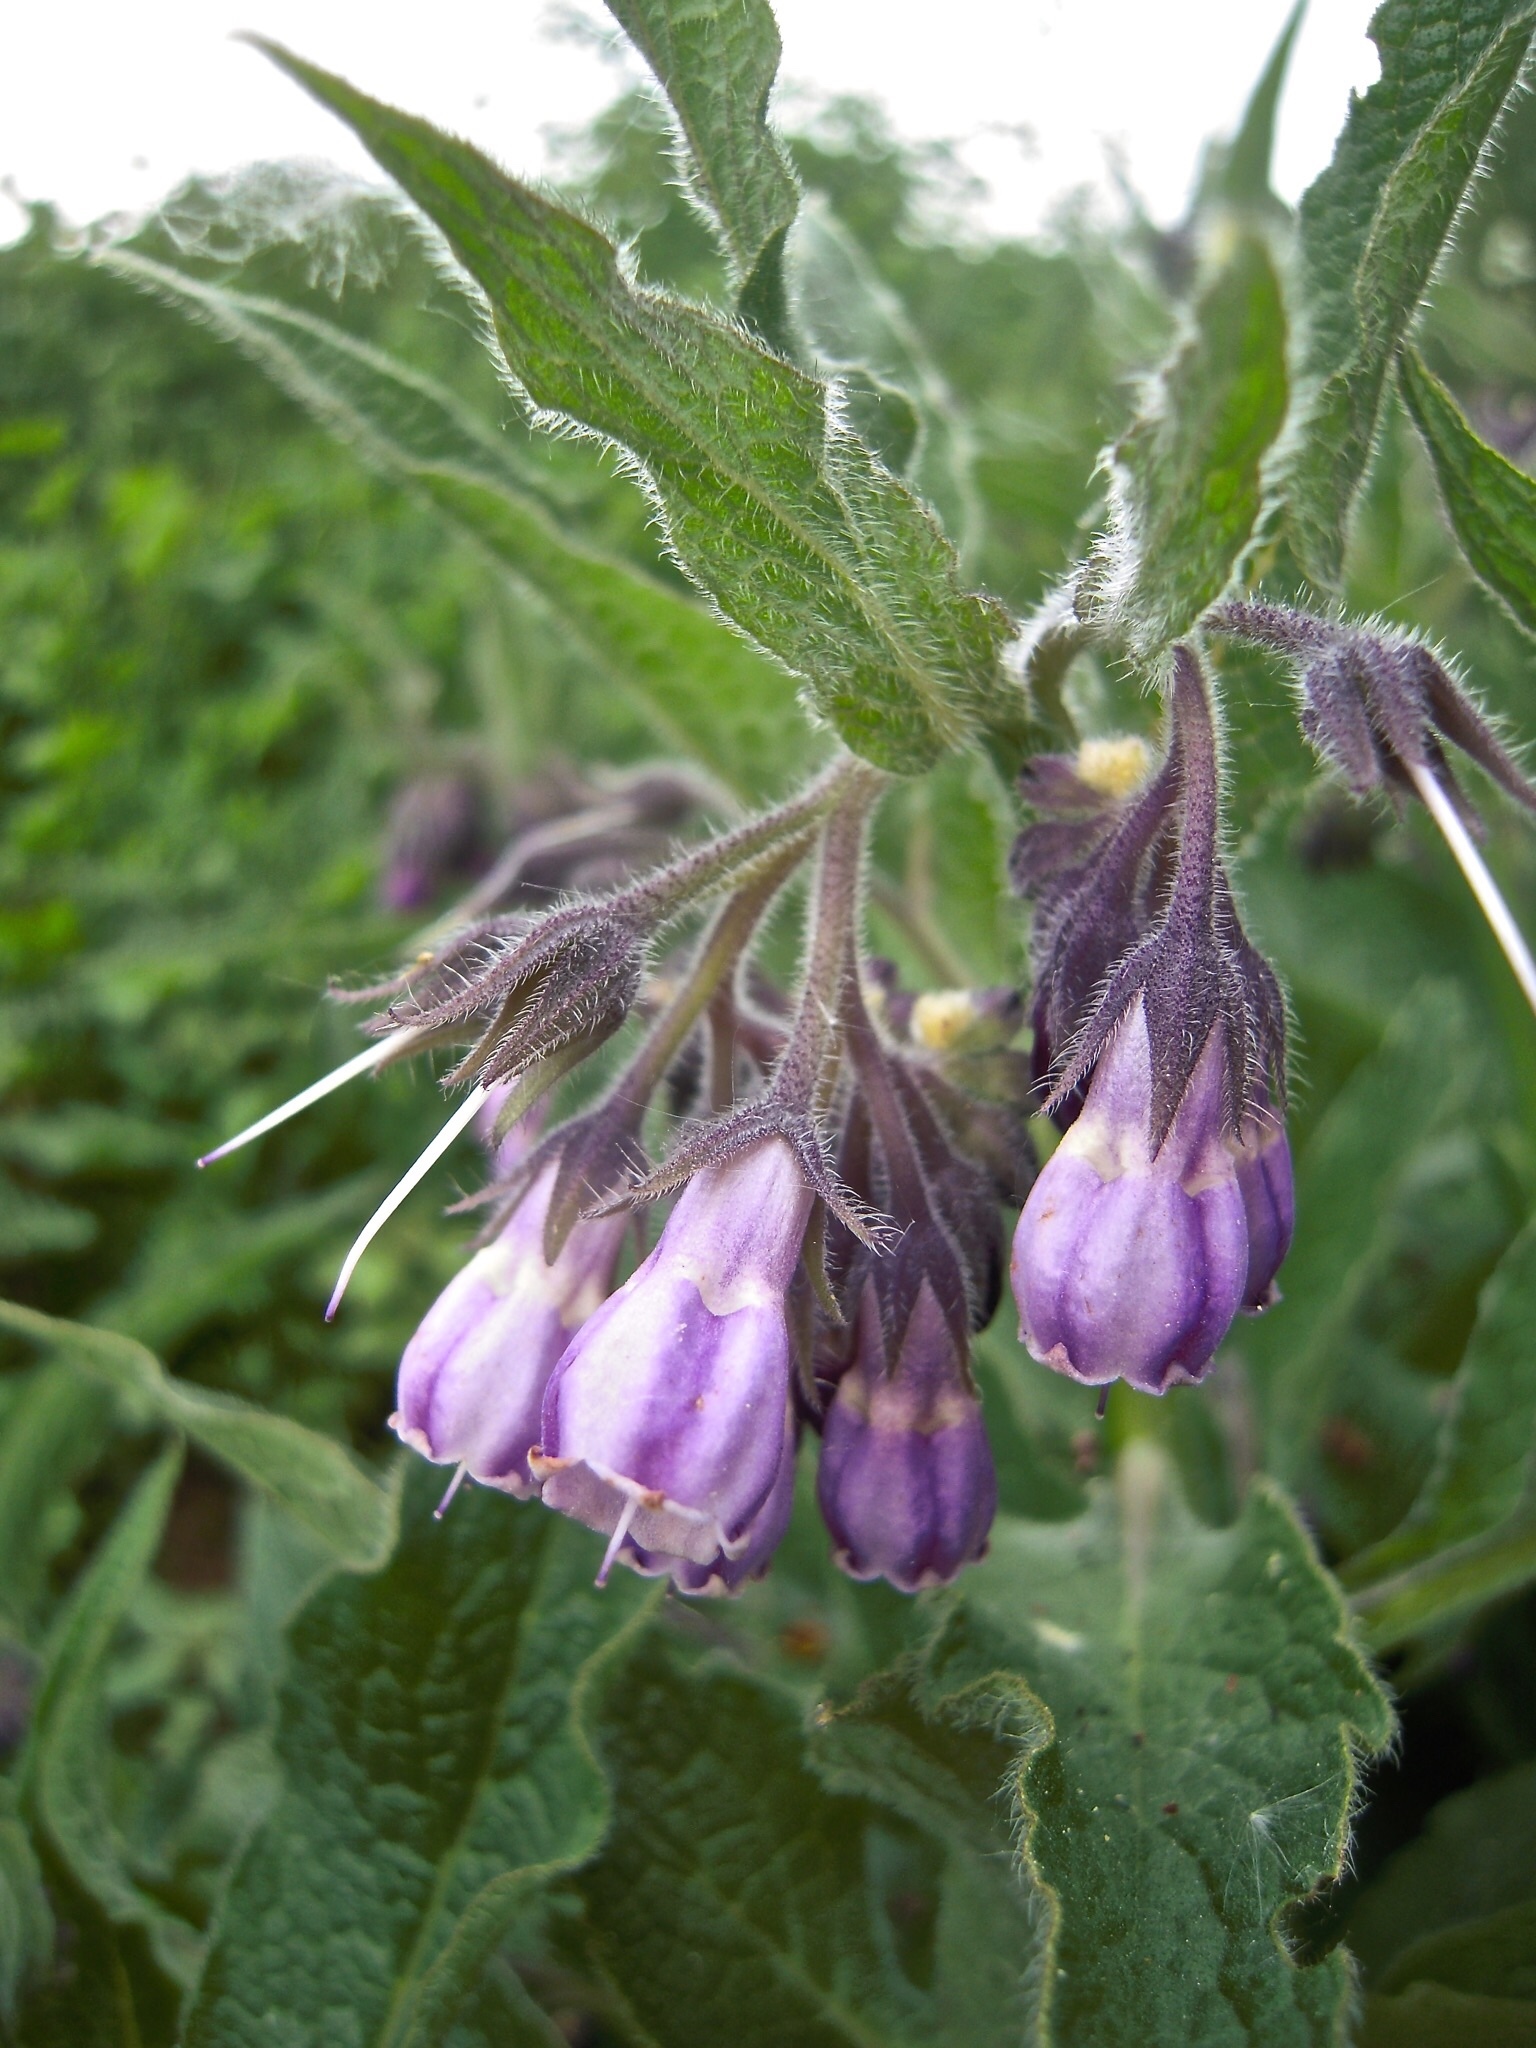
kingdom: Plantae
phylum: Tracheophyta
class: Magnoliopsida
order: Boraginales
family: Boraginaceae
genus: Symphytum
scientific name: Symphytum officinale
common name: Common comfrey
